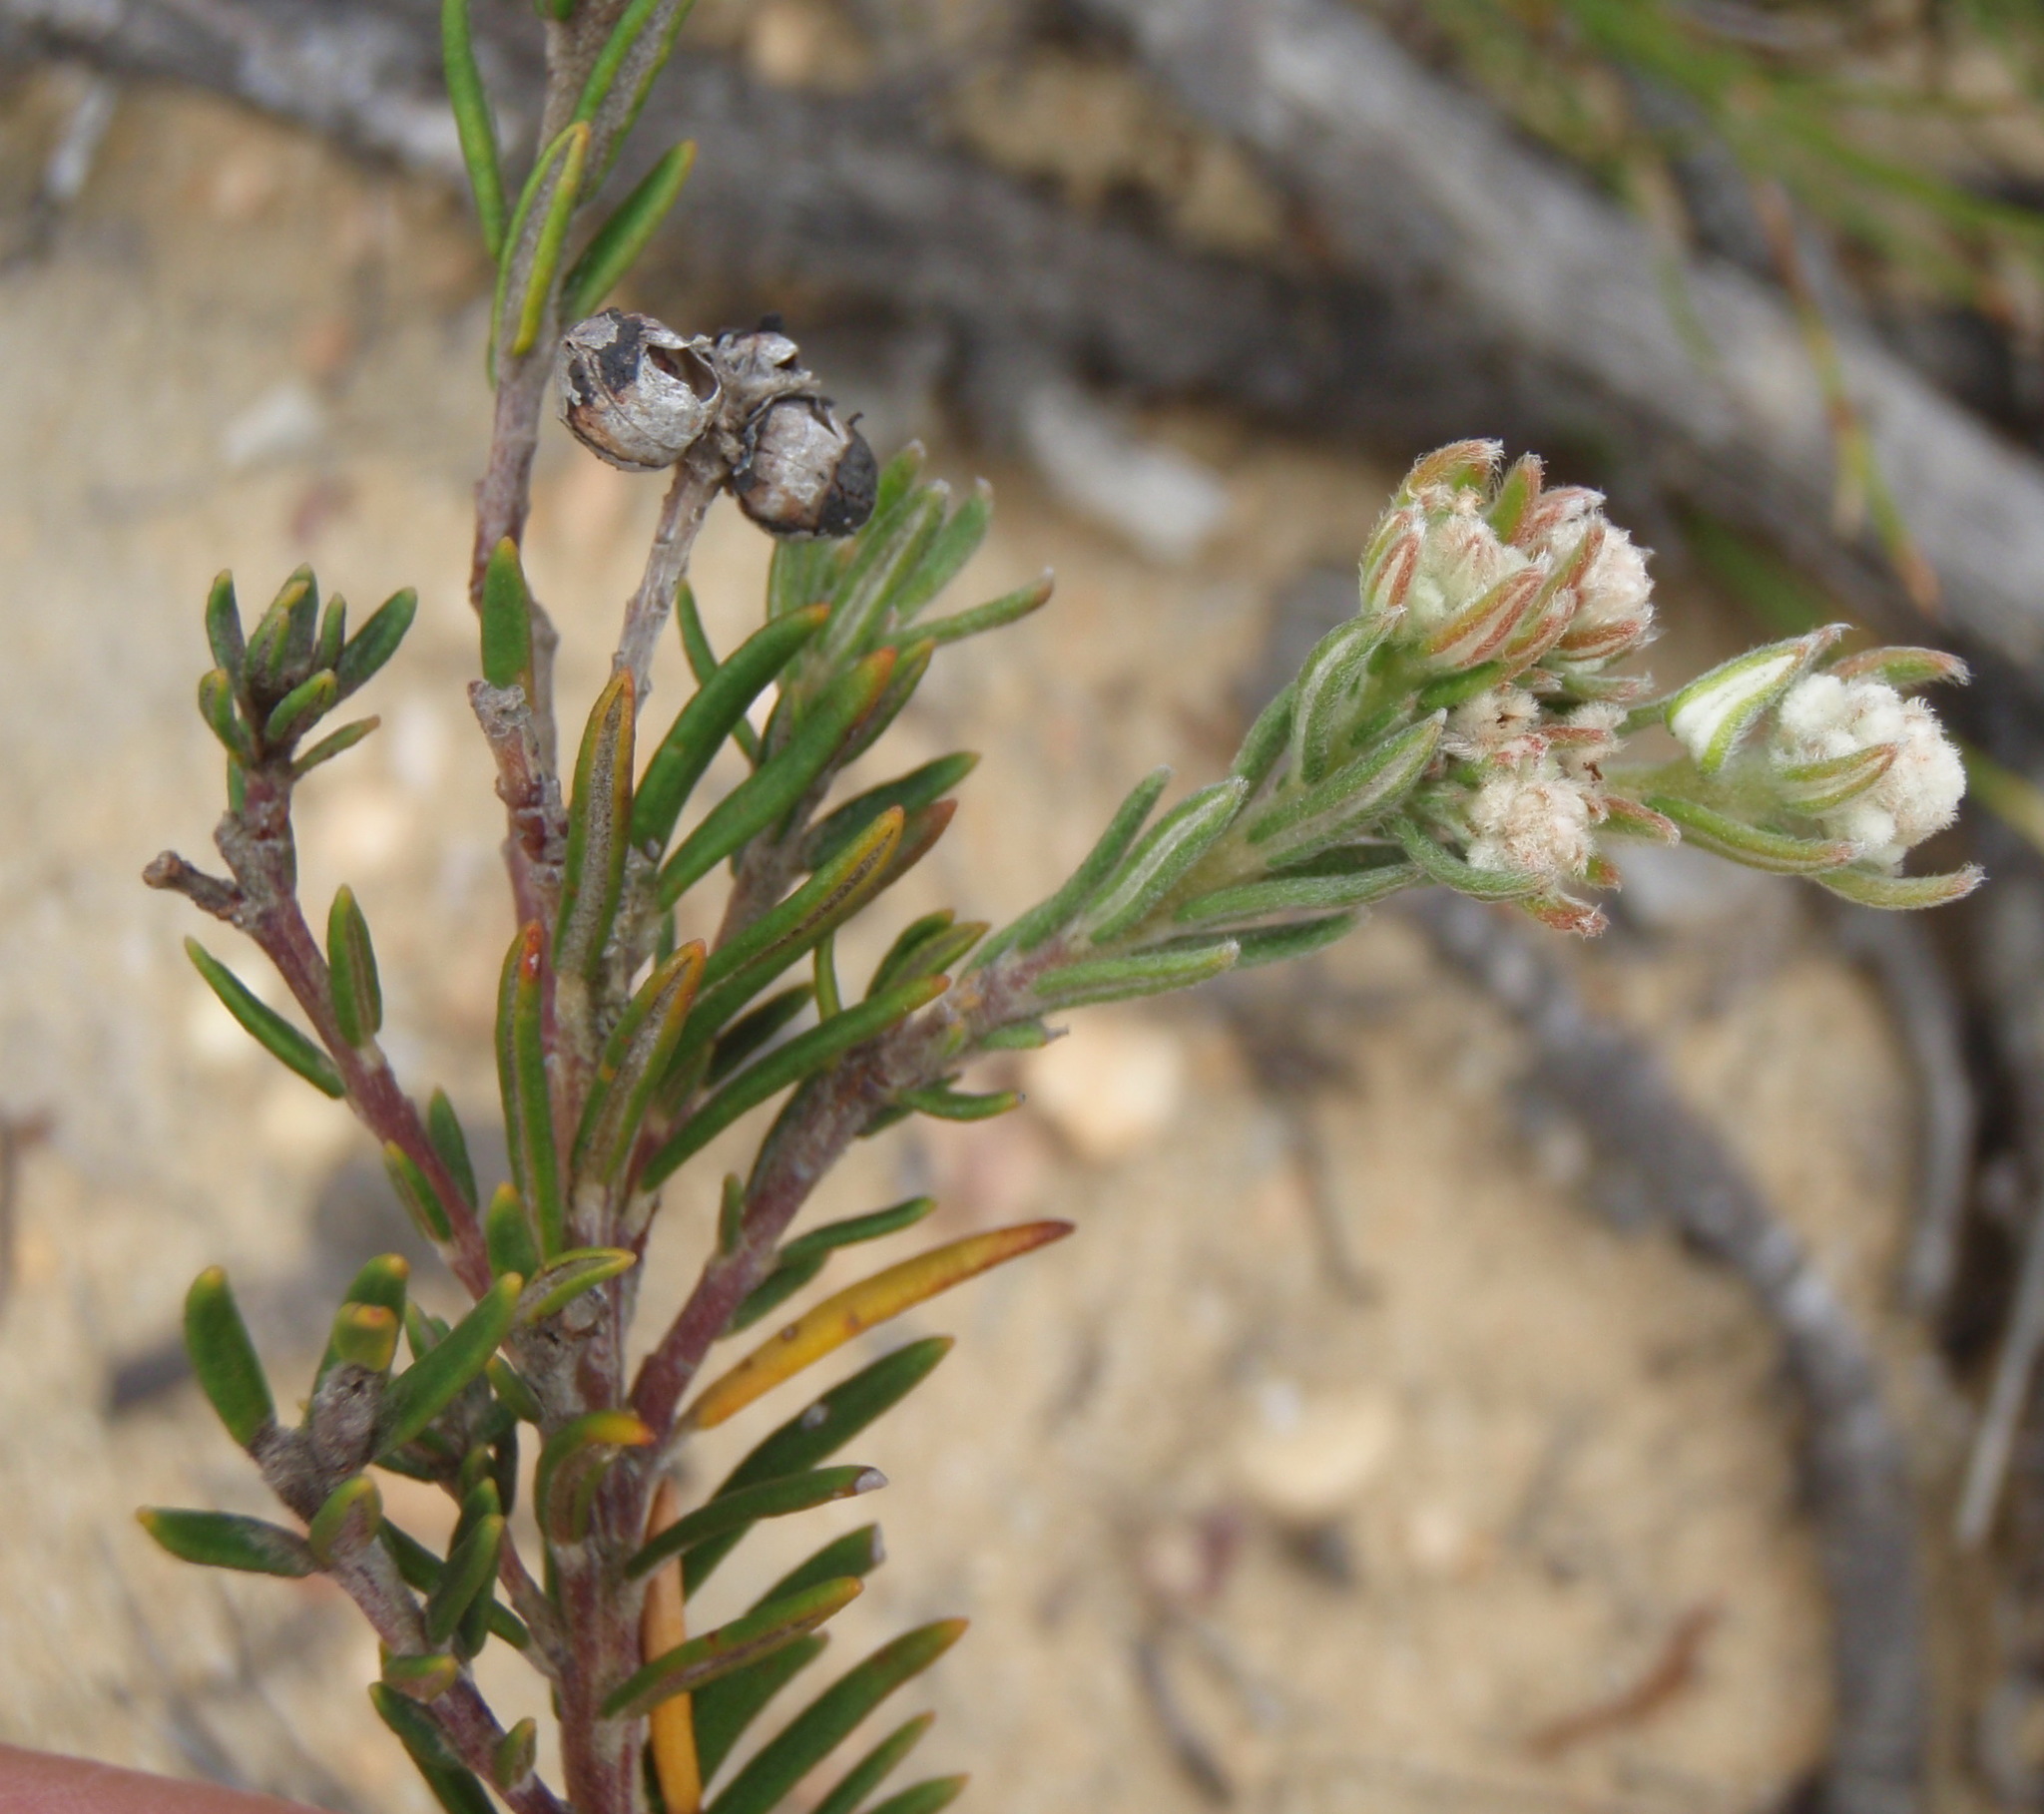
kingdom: Plantae
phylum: Tracheophyta
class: Magnoliopsida
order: Rosales
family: Rhamnaceae
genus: Phylica
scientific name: Phylica imberbis
